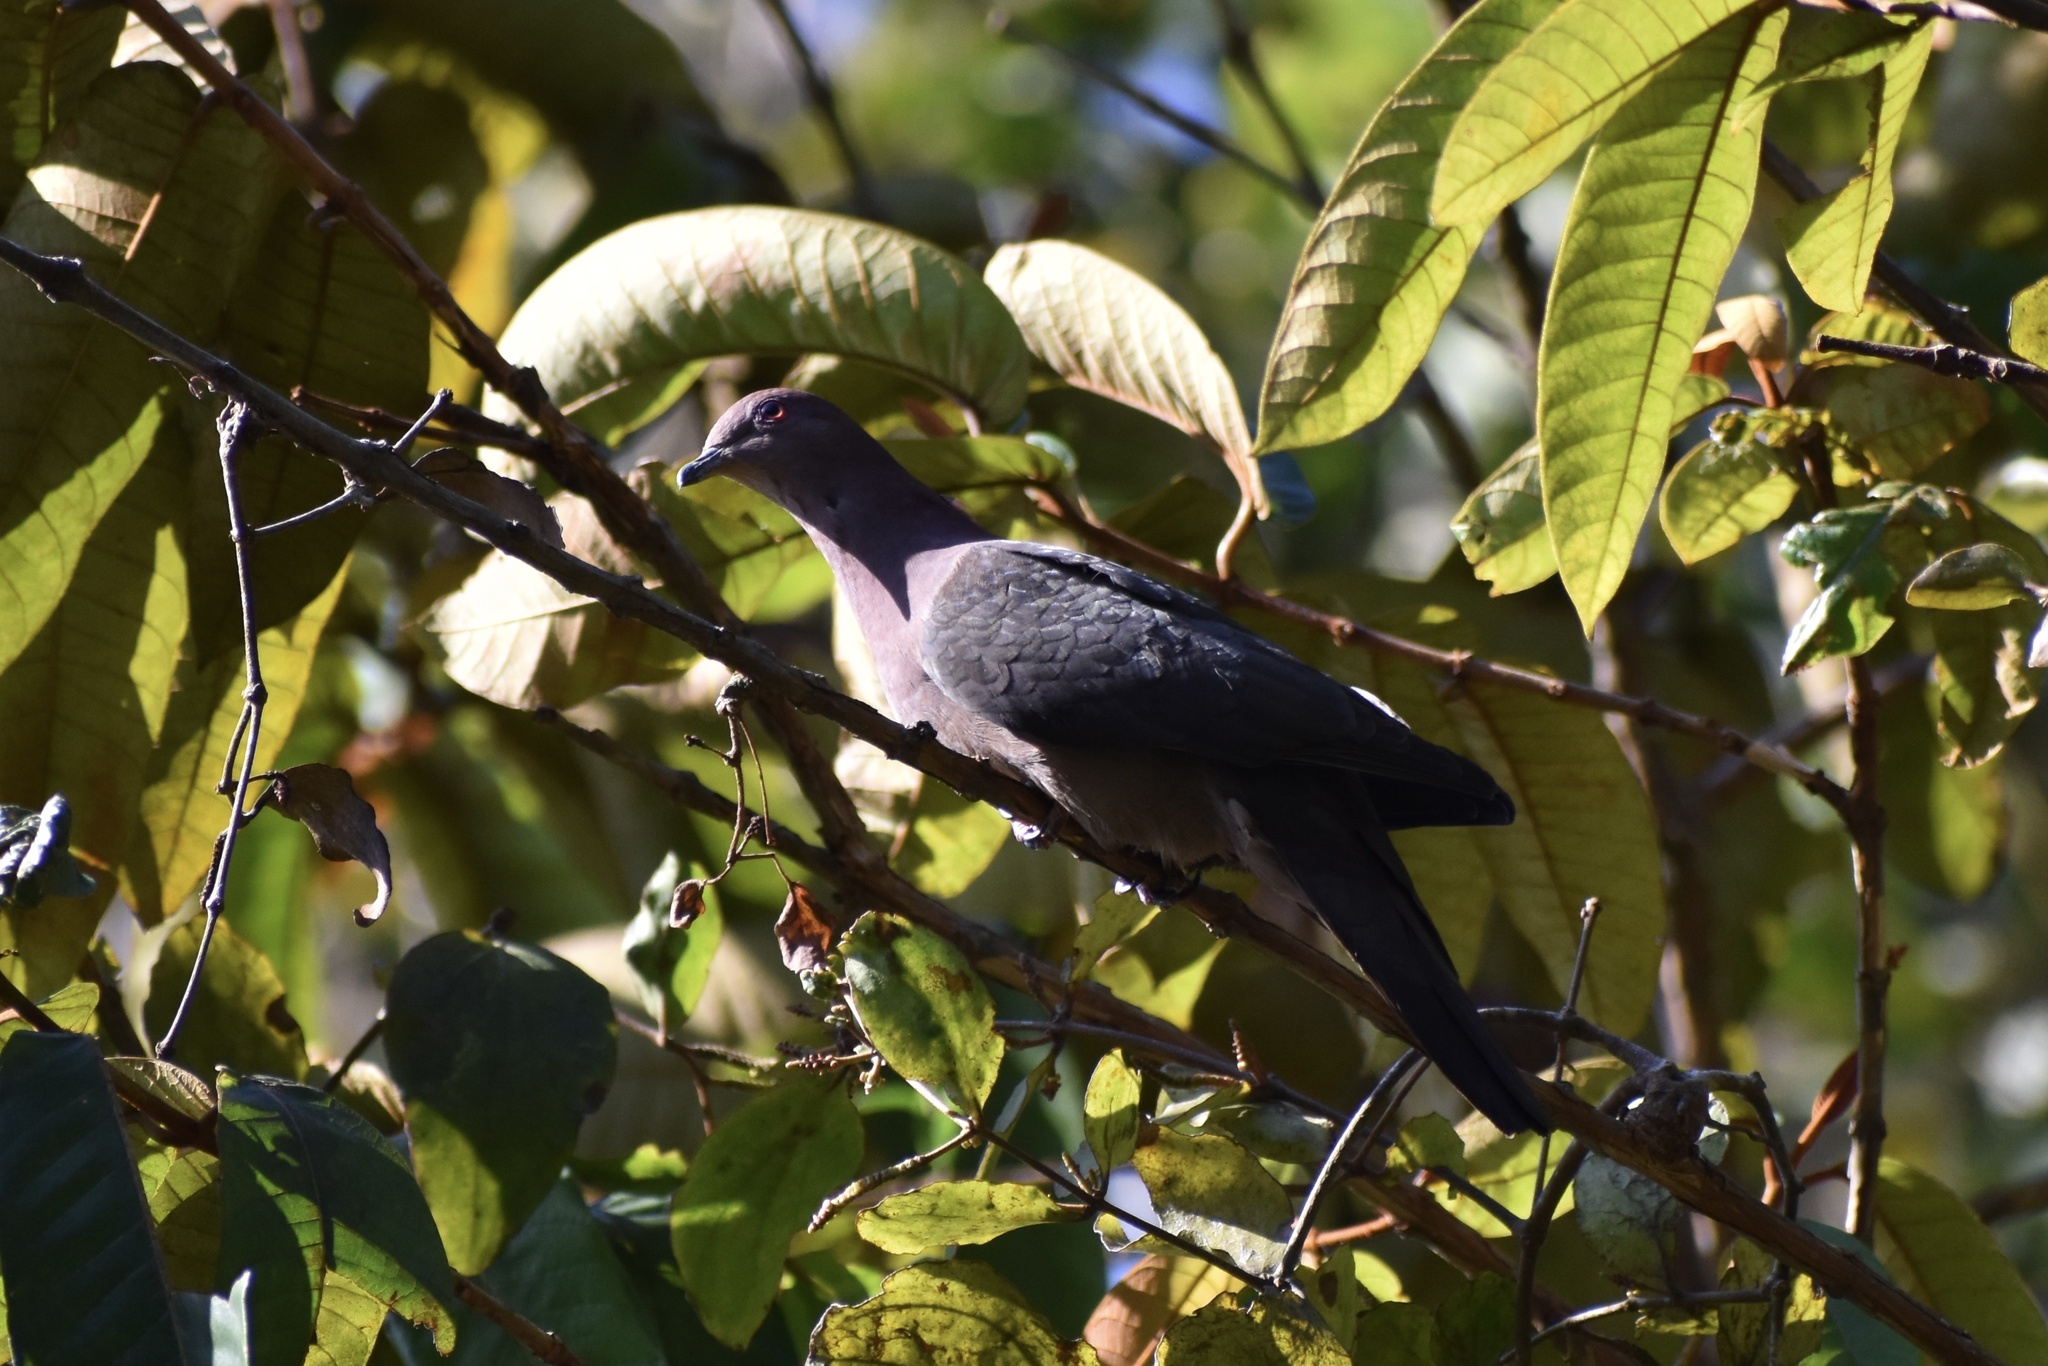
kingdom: Animalia
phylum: Chordata
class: Aves
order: Columbiformes
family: Columbidae
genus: Patagioenas
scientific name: Patagioenas nigrirostris
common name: Short-billed pigeon
